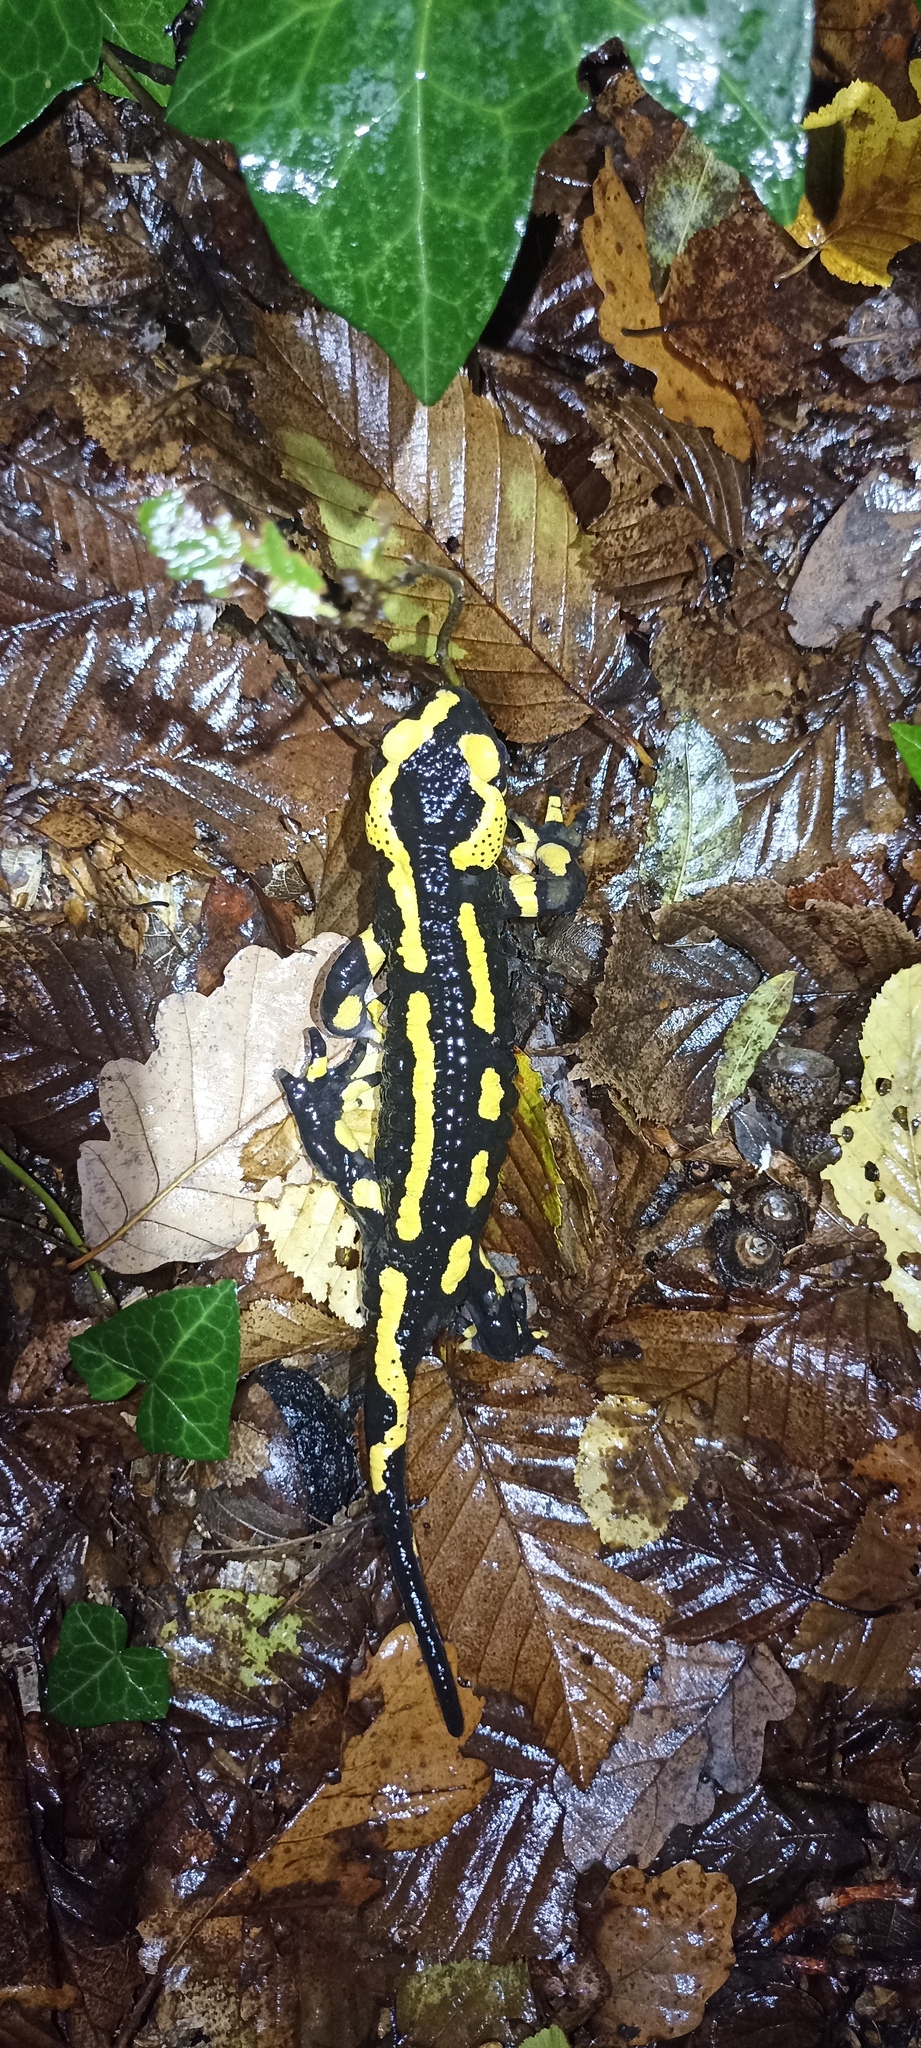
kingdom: Animalia
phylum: Chordata
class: Amphibia
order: Caudata
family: Salamandridae
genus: Salamandra
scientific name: Salamandra salamandra
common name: Fire salamander
